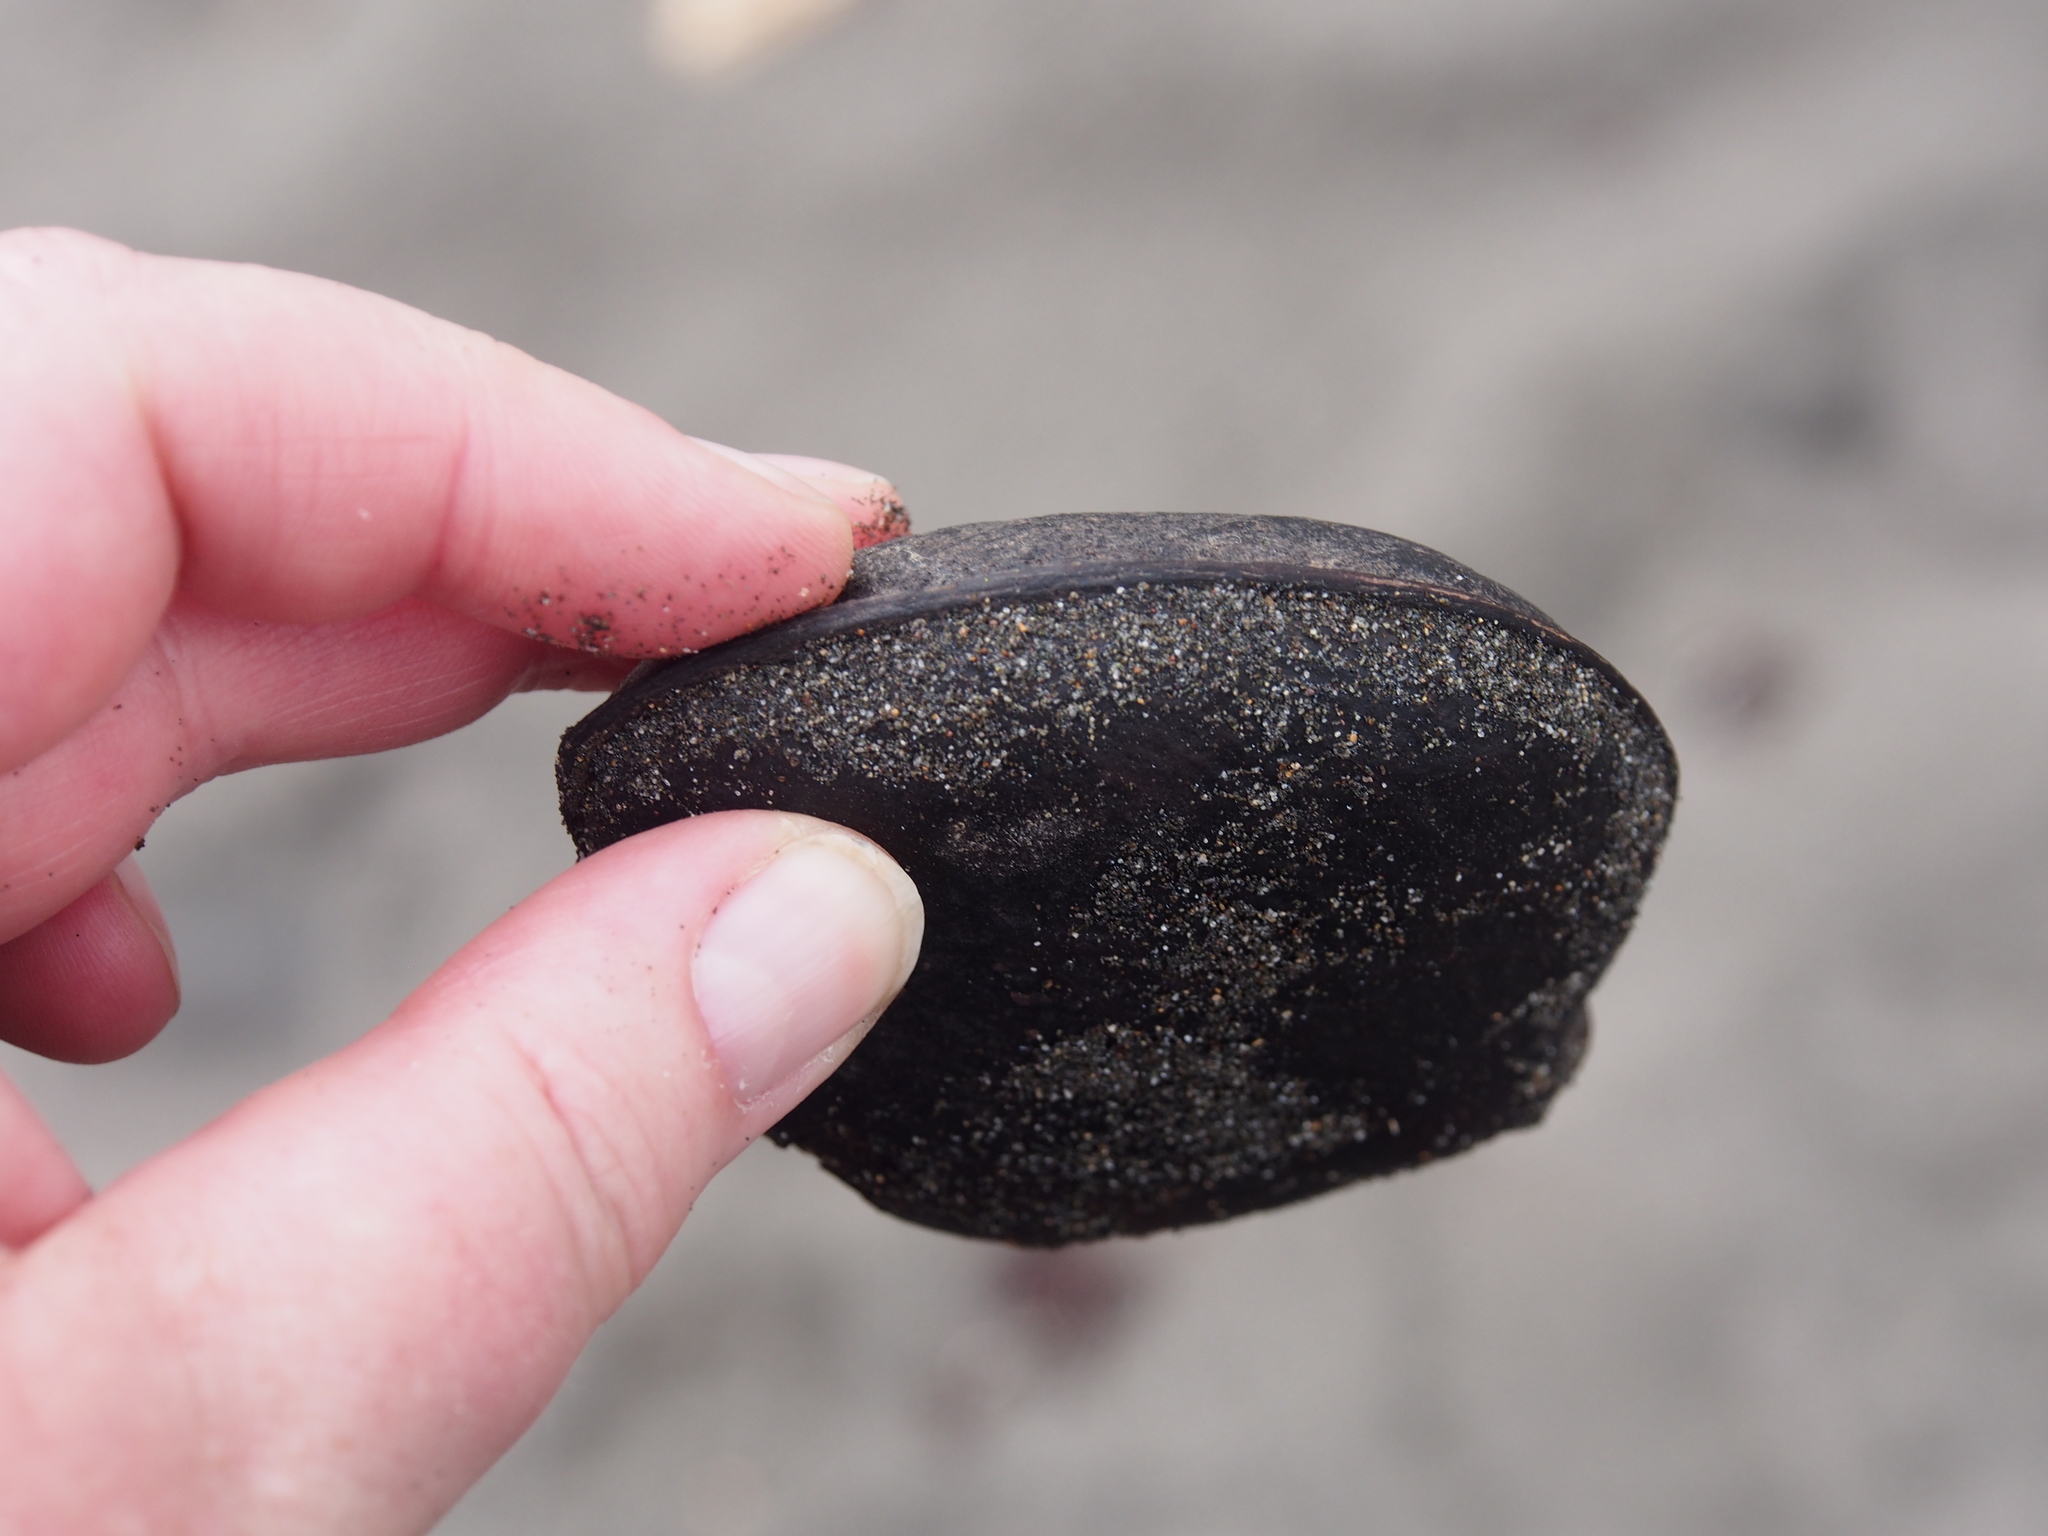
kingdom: Plantae
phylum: Tracheophyta
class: Magnoliopsida
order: Fabales
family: Fabaceae
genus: Prioria
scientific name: Prioria copaifera
